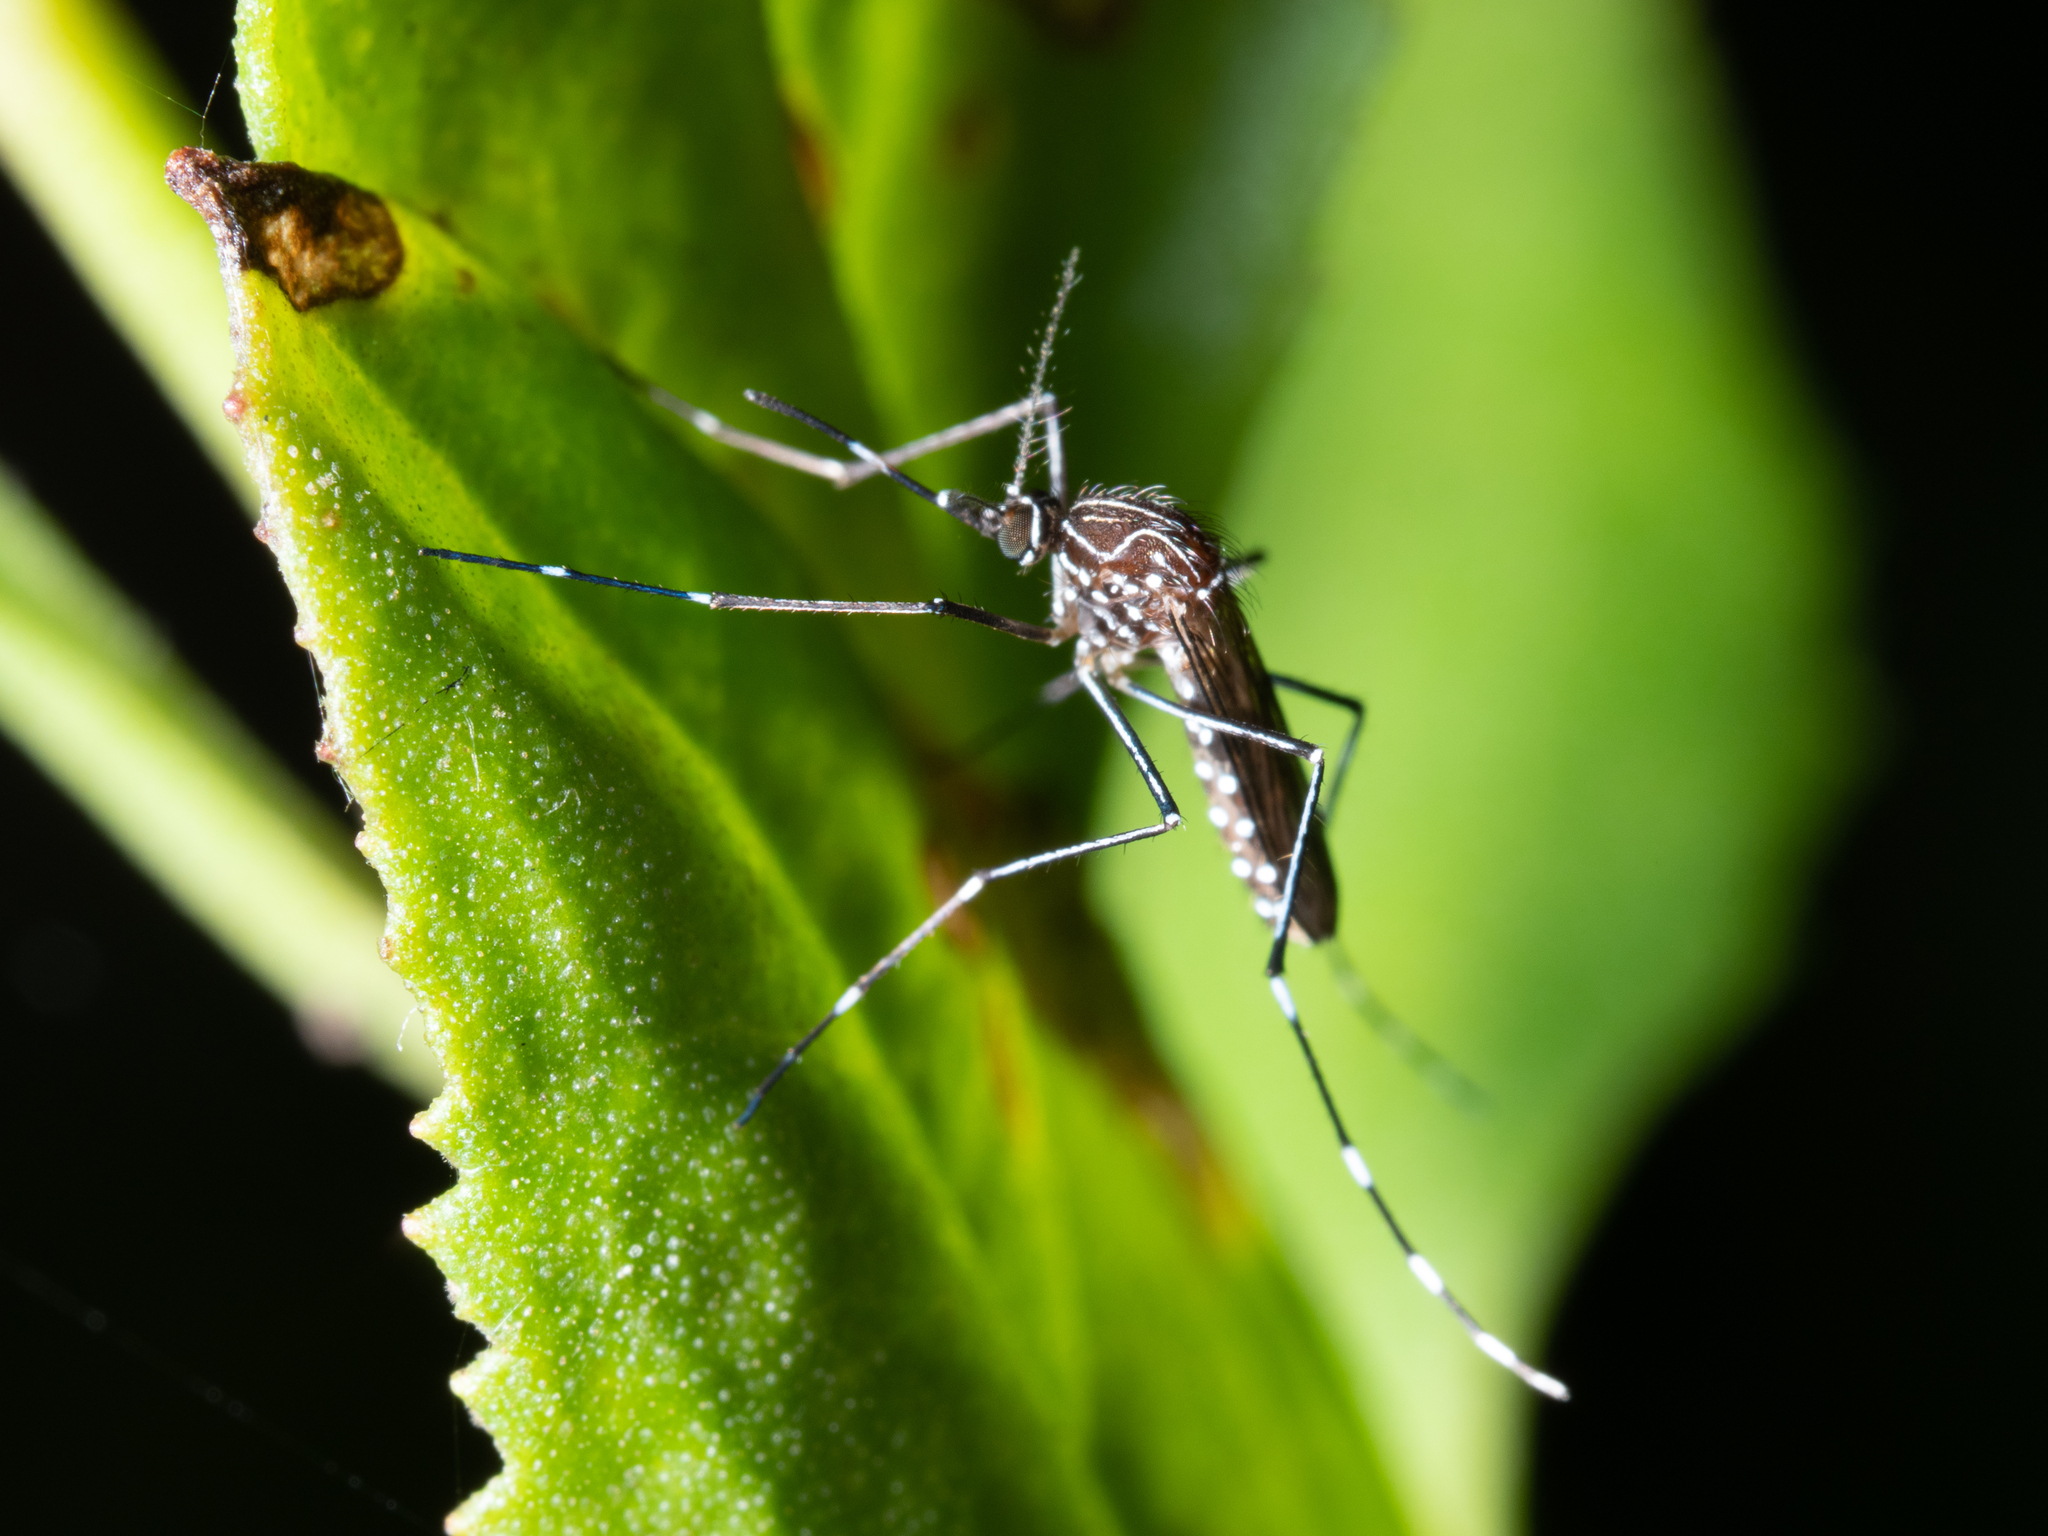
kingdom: Animalia
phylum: Arthropoda
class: Insecta
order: Diptera
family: Culicidae
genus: Aedes
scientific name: Aedes notoscriptus
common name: Australian backyard mosquito
